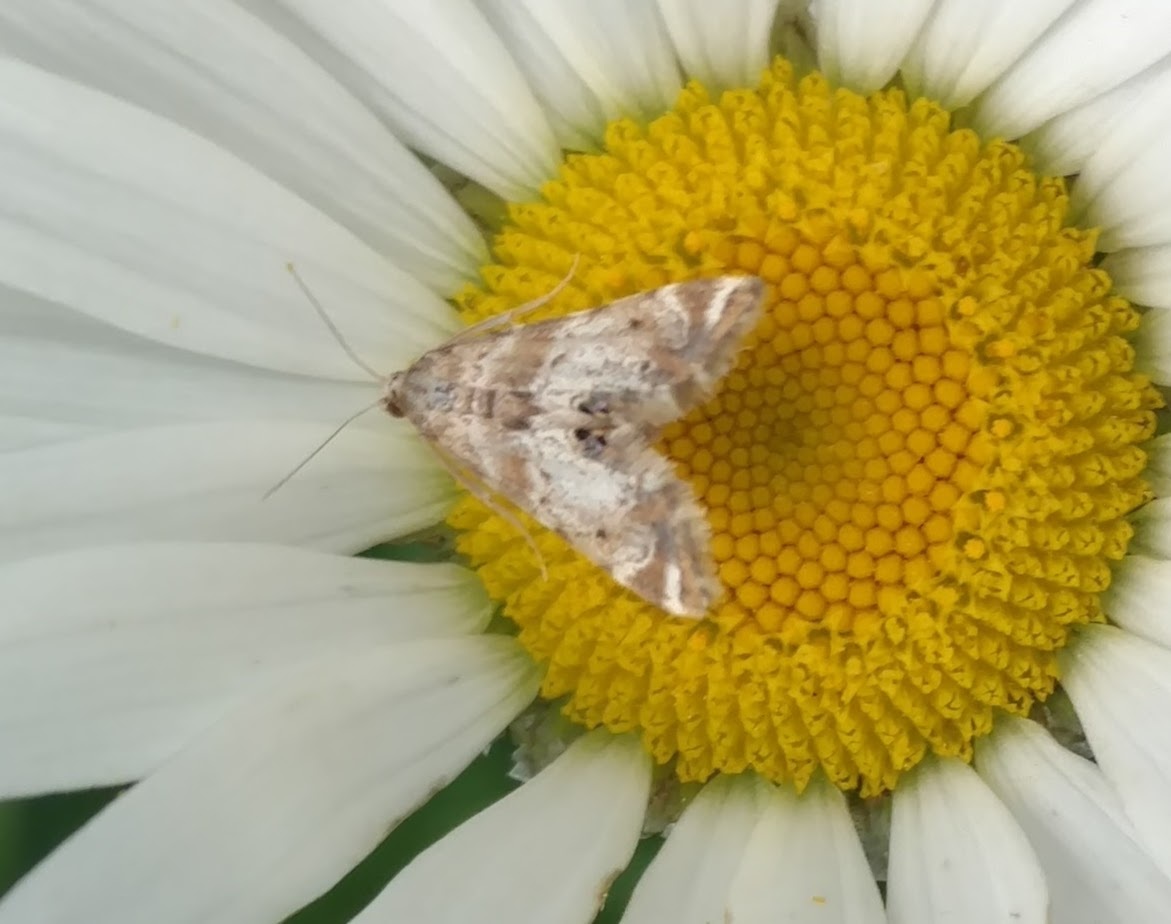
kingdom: Animalia
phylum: Arthropoda
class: Insecta
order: Lepidoptera
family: Crambidae
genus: Petrophila
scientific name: Petrophila fulicalis
